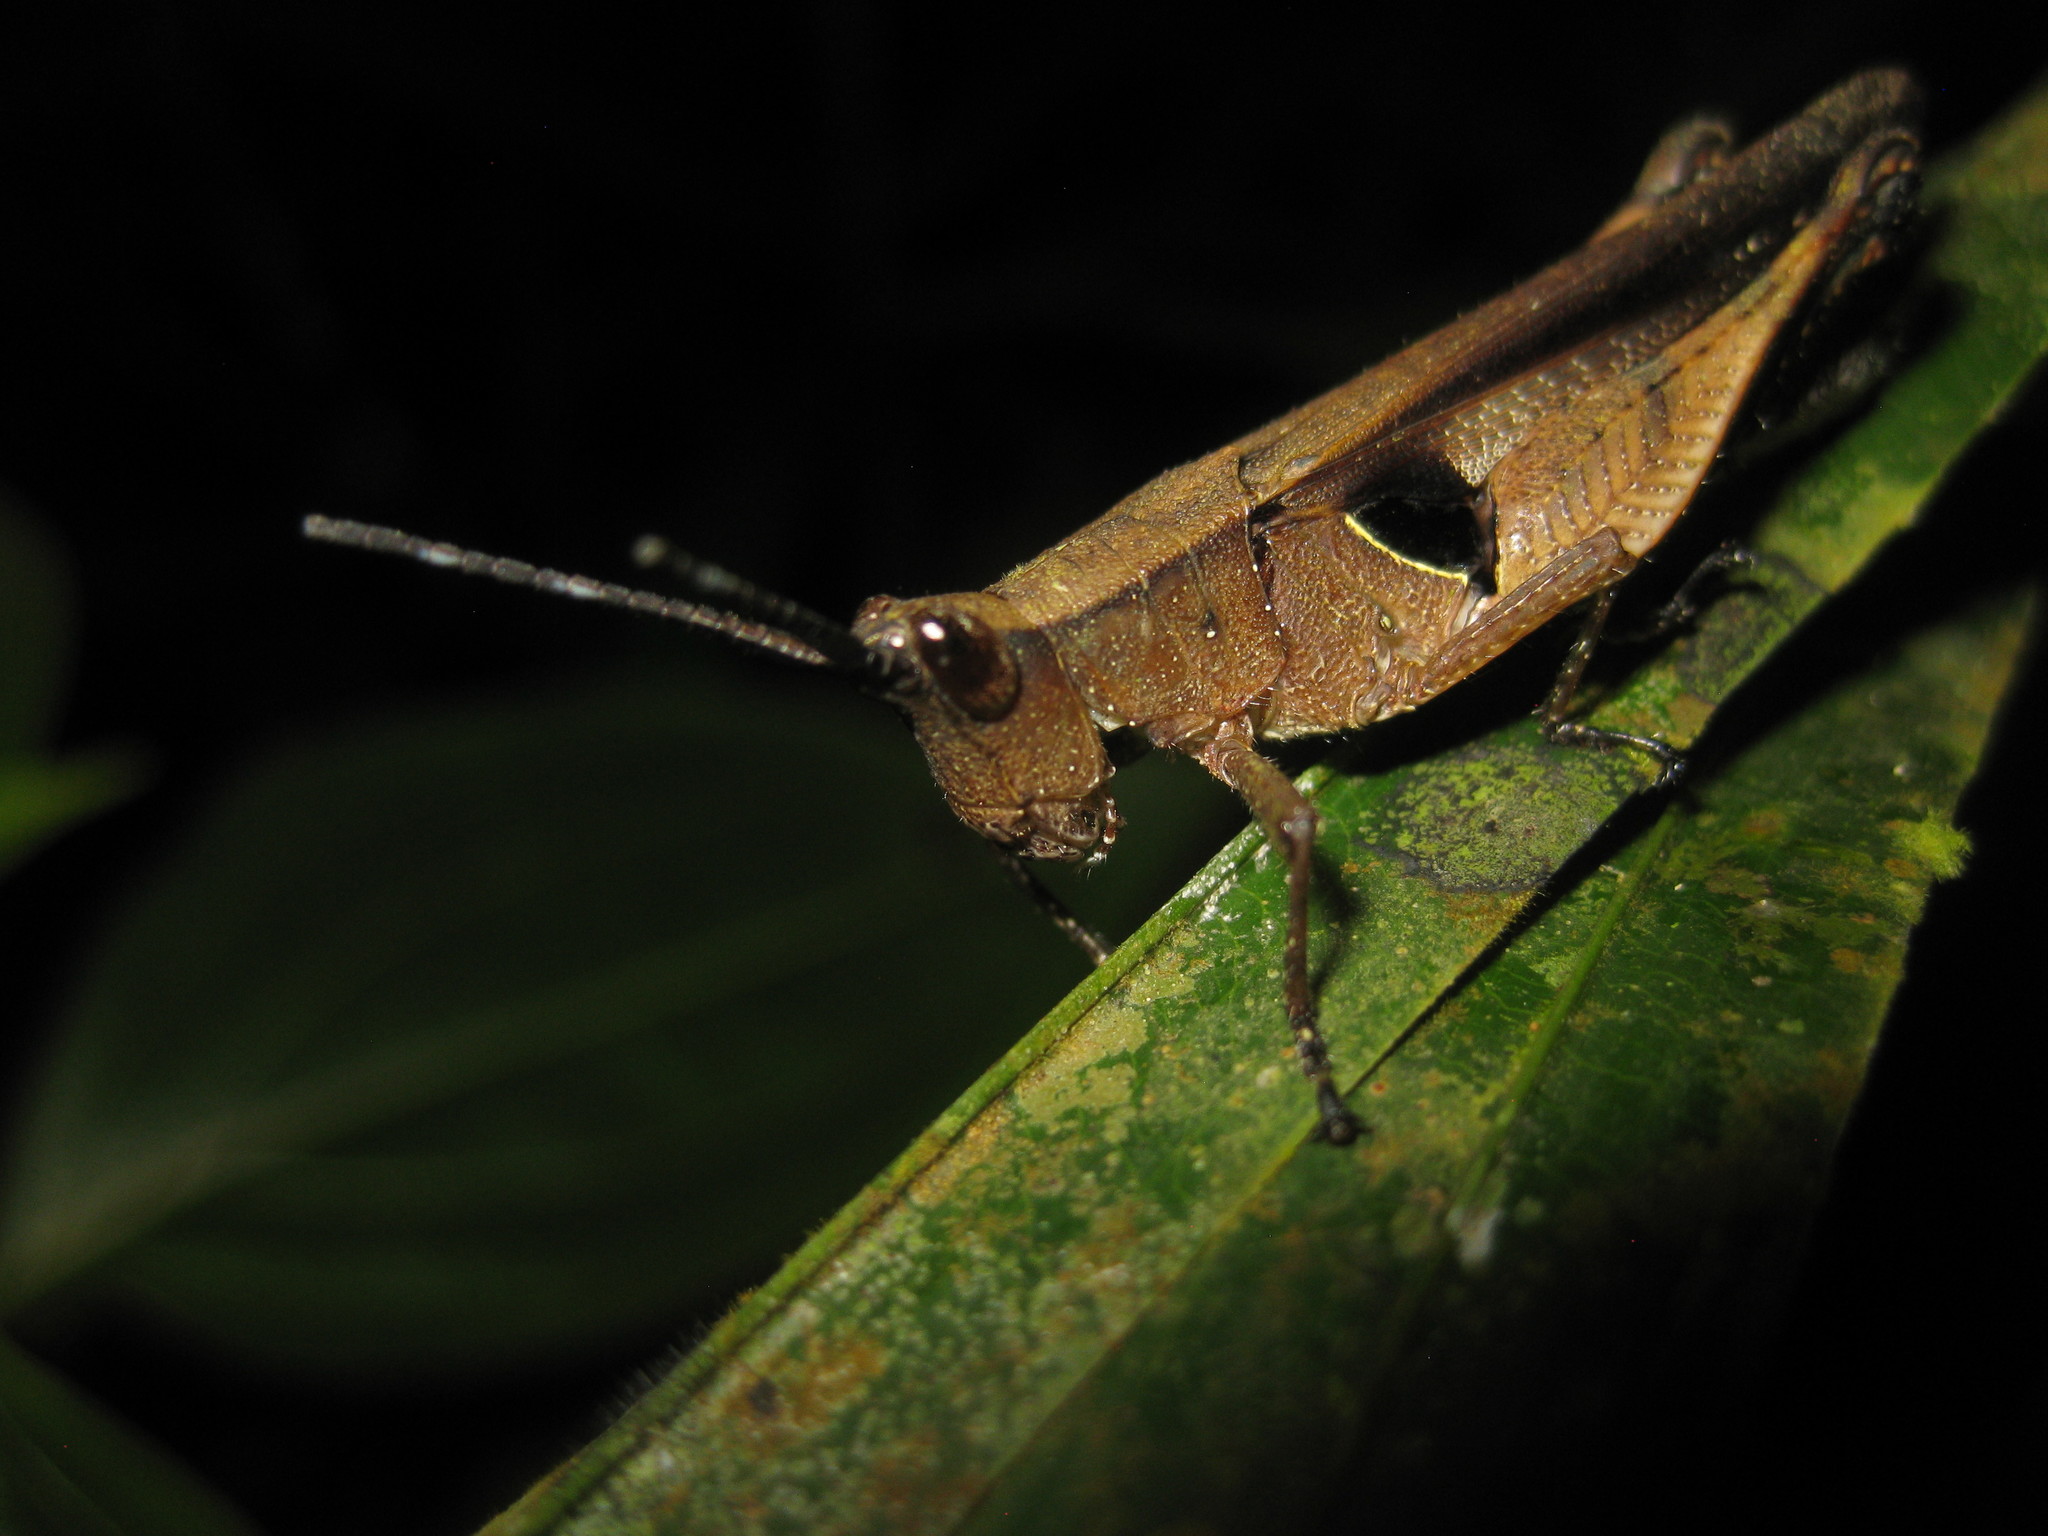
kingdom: Animalia
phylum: Arthropoda
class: Insecta
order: Orthoptera
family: Acrididae
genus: Xiphiola
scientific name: Xiphiola cyanoptera
